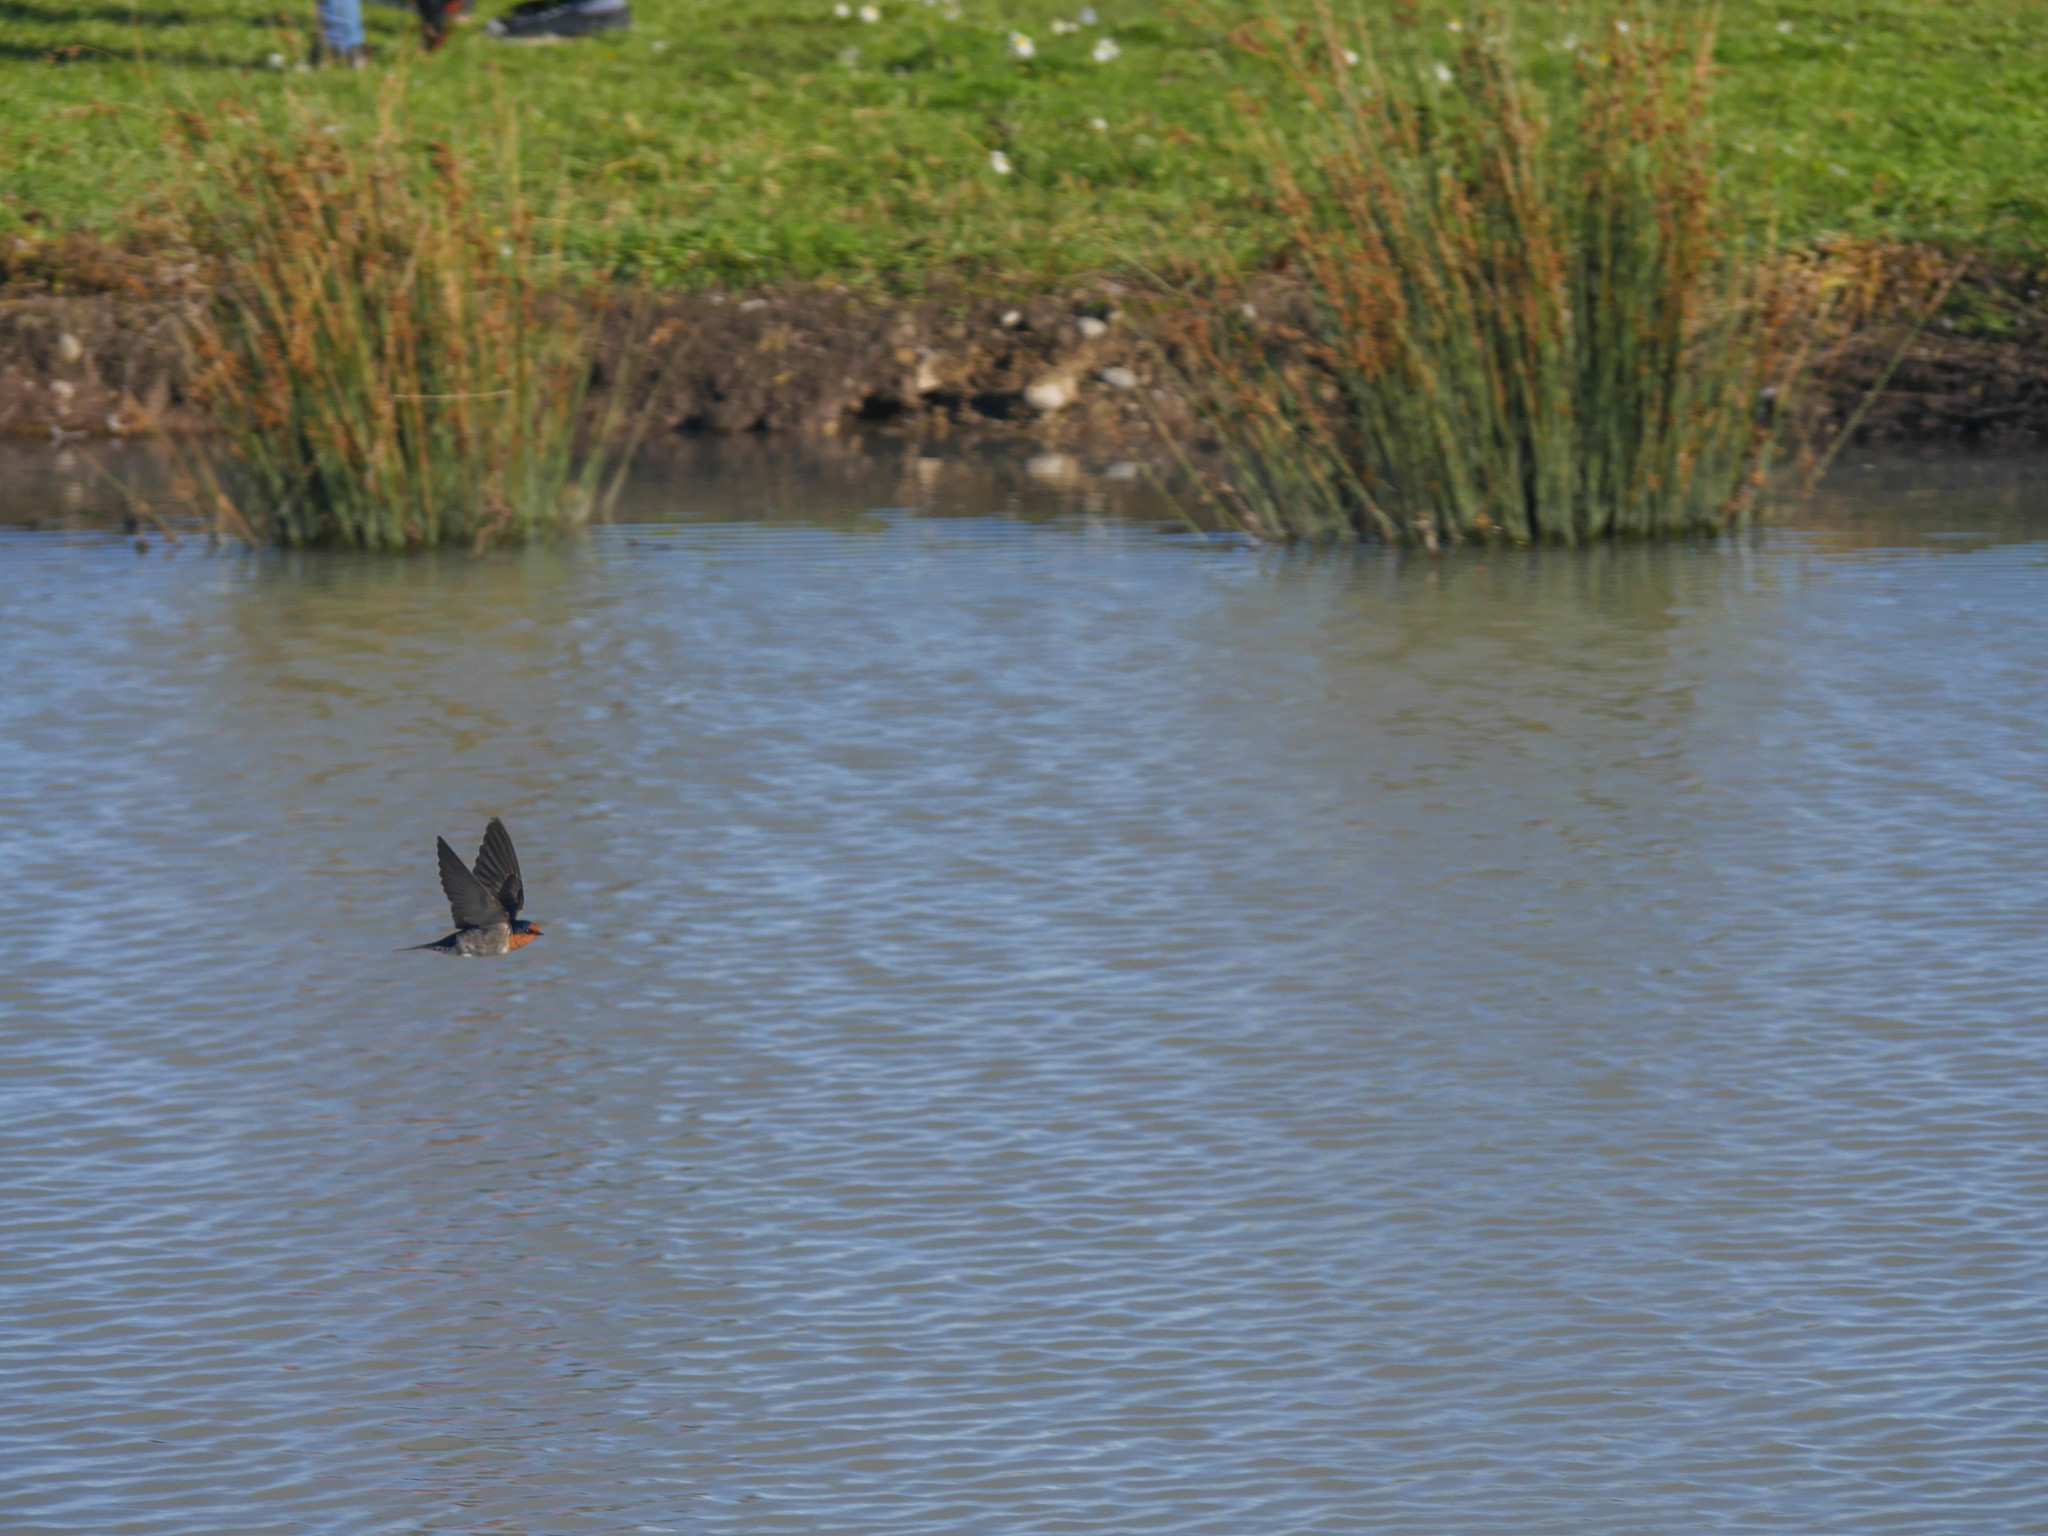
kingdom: Animalia
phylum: Chordata
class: Aves
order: Passeriformes
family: Hirundinidae
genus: Hirundo
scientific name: Hirundo neoxena
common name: Welcome swallow
